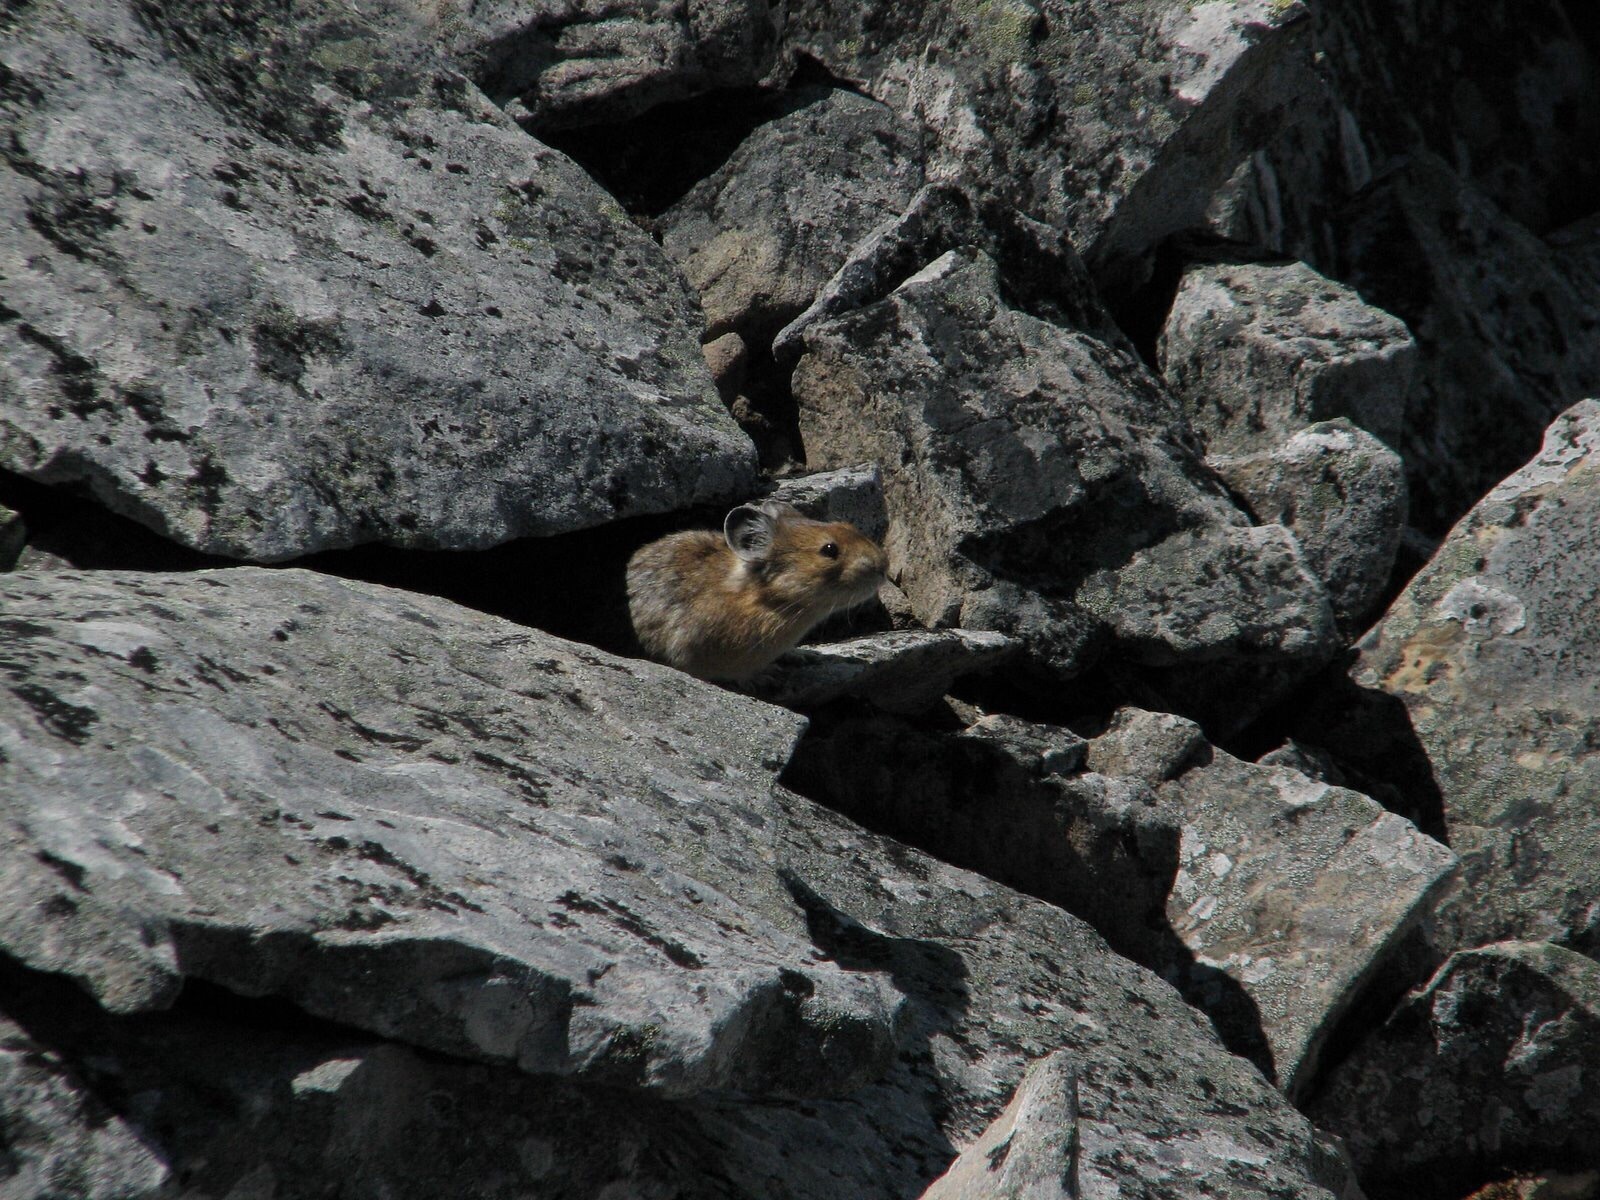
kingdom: Animalia
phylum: Chordata
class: Mammalia
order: Lagomorpha
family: Ochotonidae
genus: Ochotona
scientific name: Ochotona princeps
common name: American pika
